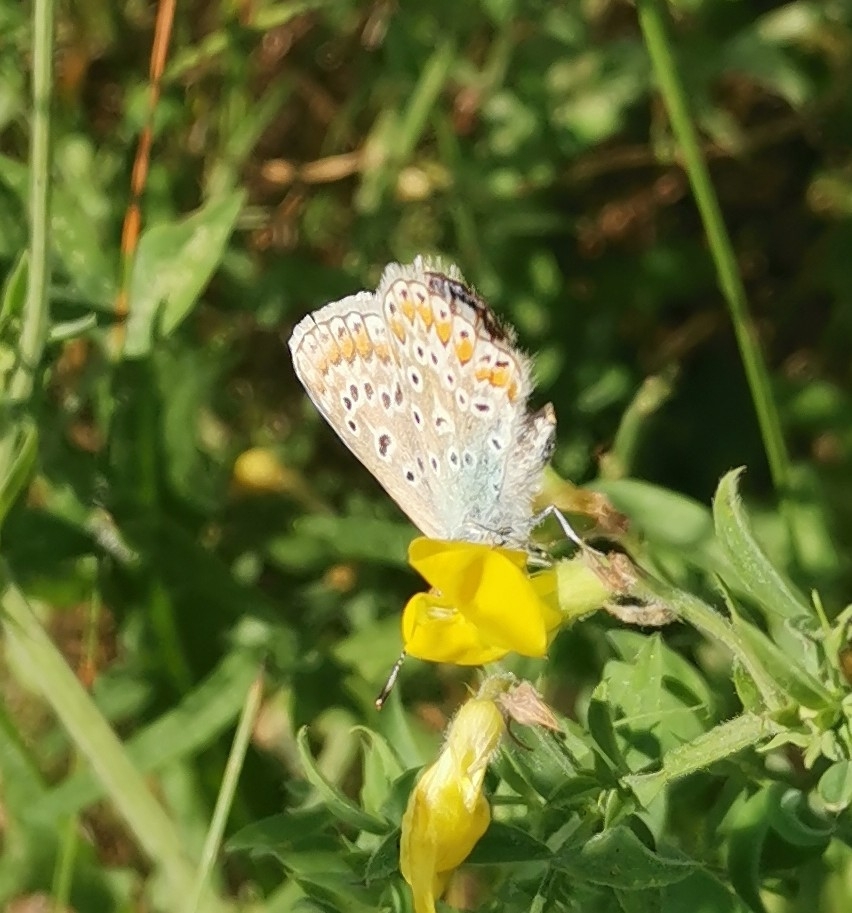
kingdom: Animalia
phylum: Arthropoda
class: Insecta
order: Lepidoptera
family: Lycaenidae
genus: Polyommatus
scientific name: Polyommatus icarus
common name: Common blue
